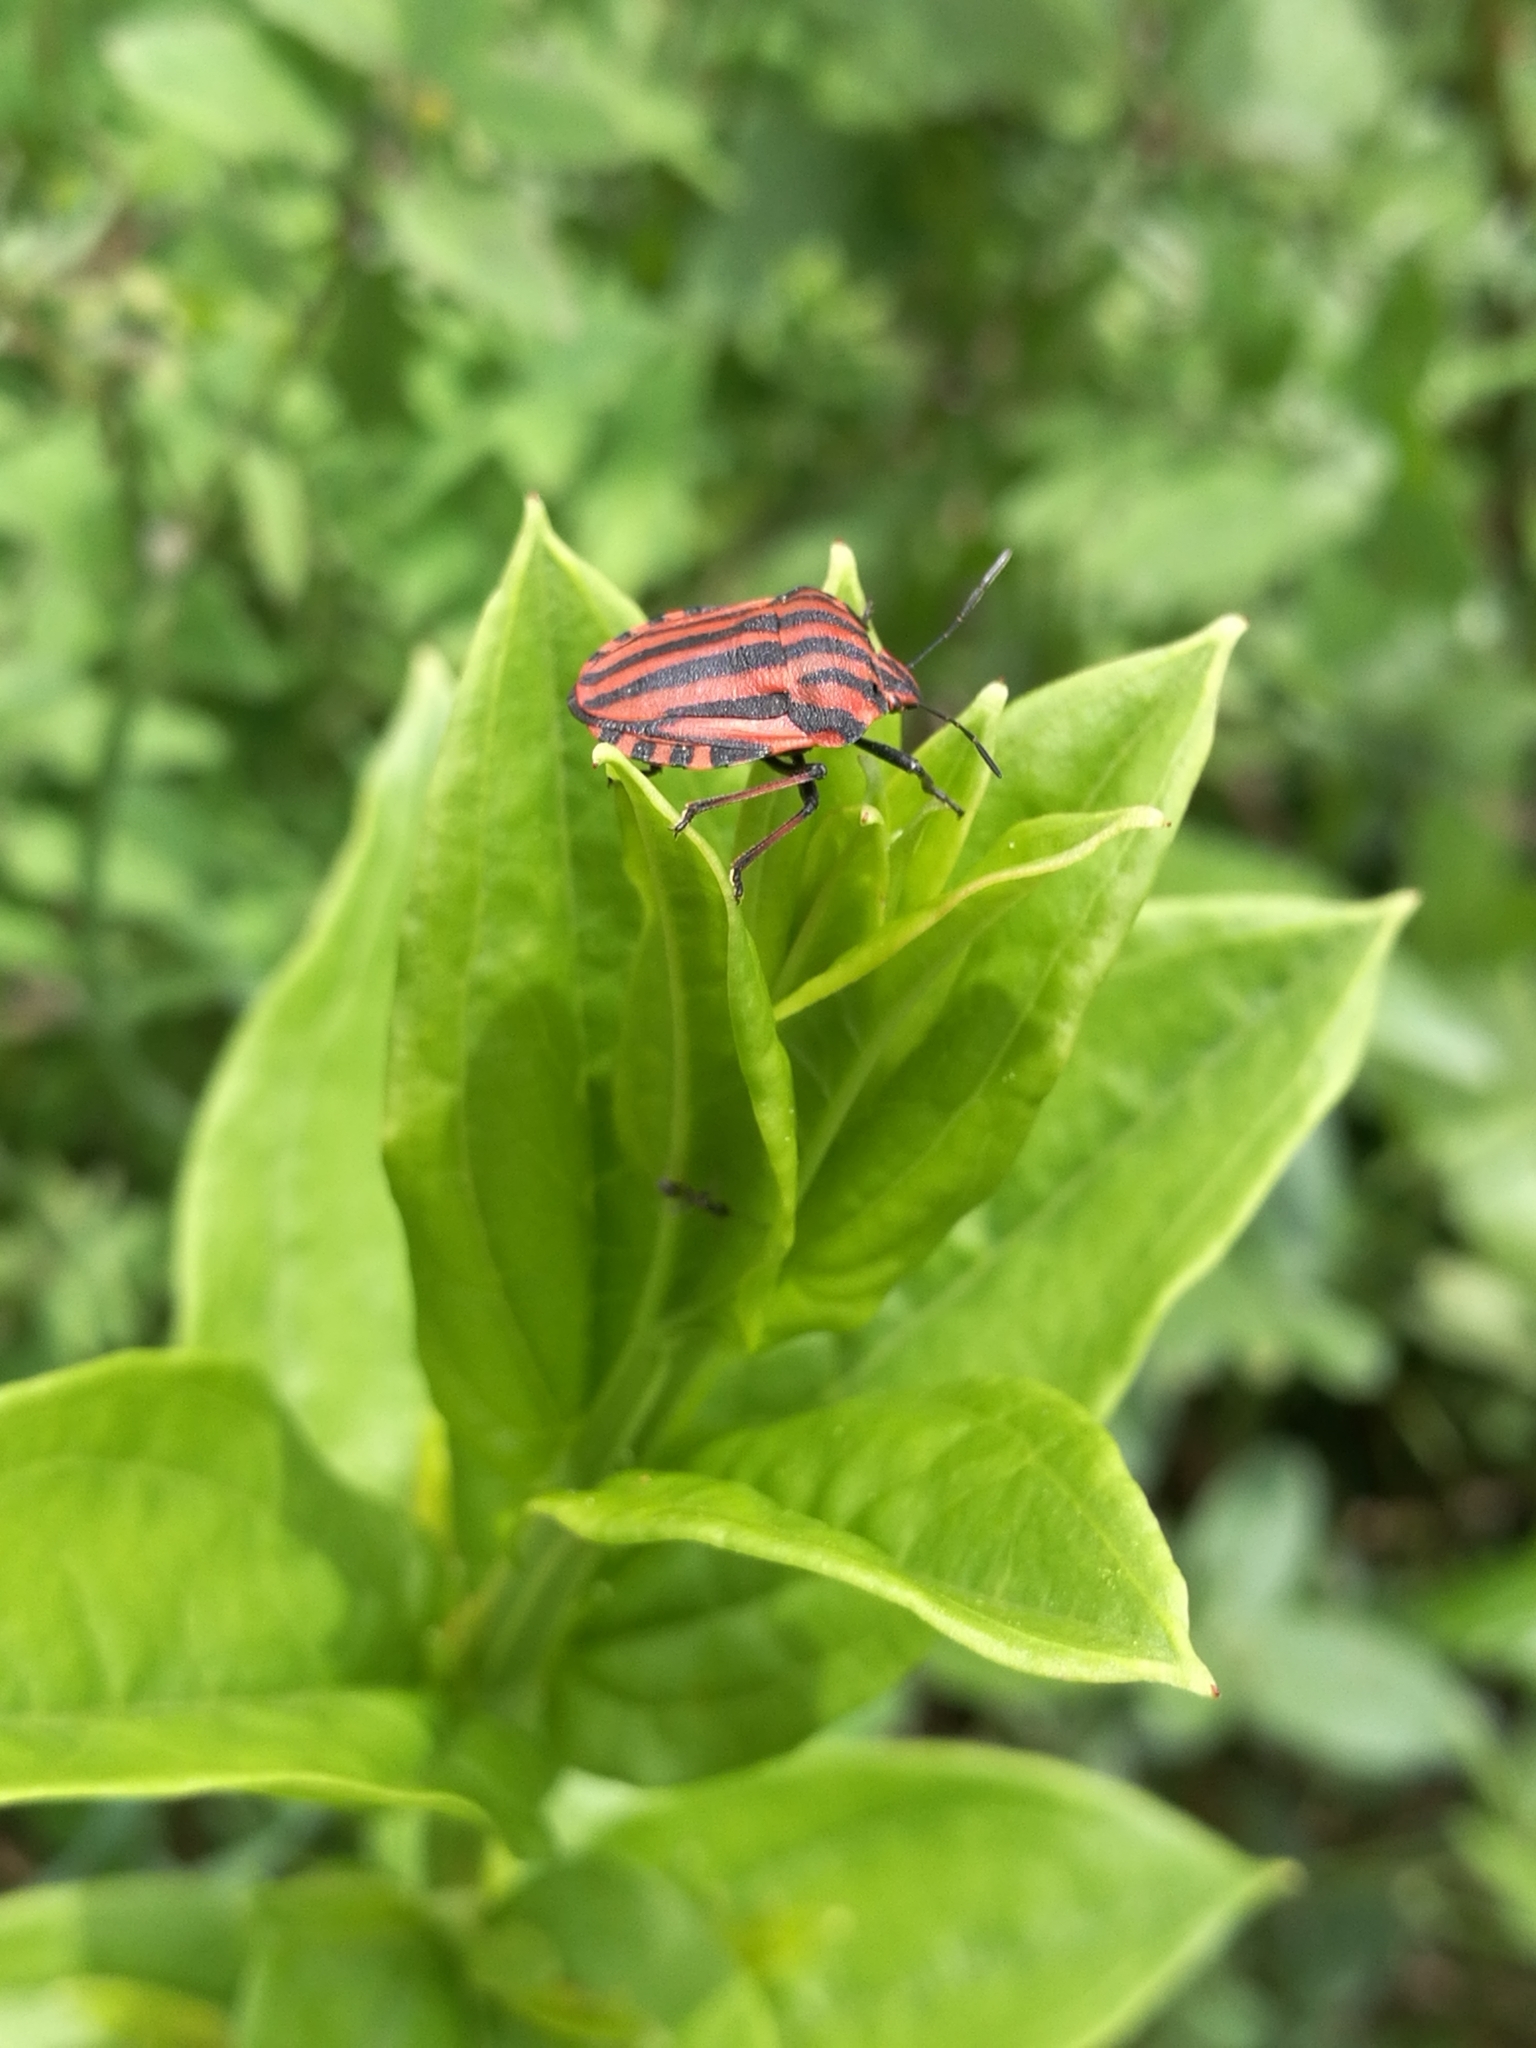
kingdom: Animalia
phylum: Arthropoda
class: Insecta
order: Hemiptera
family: Pentatomidae
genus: Graphosoma
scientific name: Graphosoma italicum
